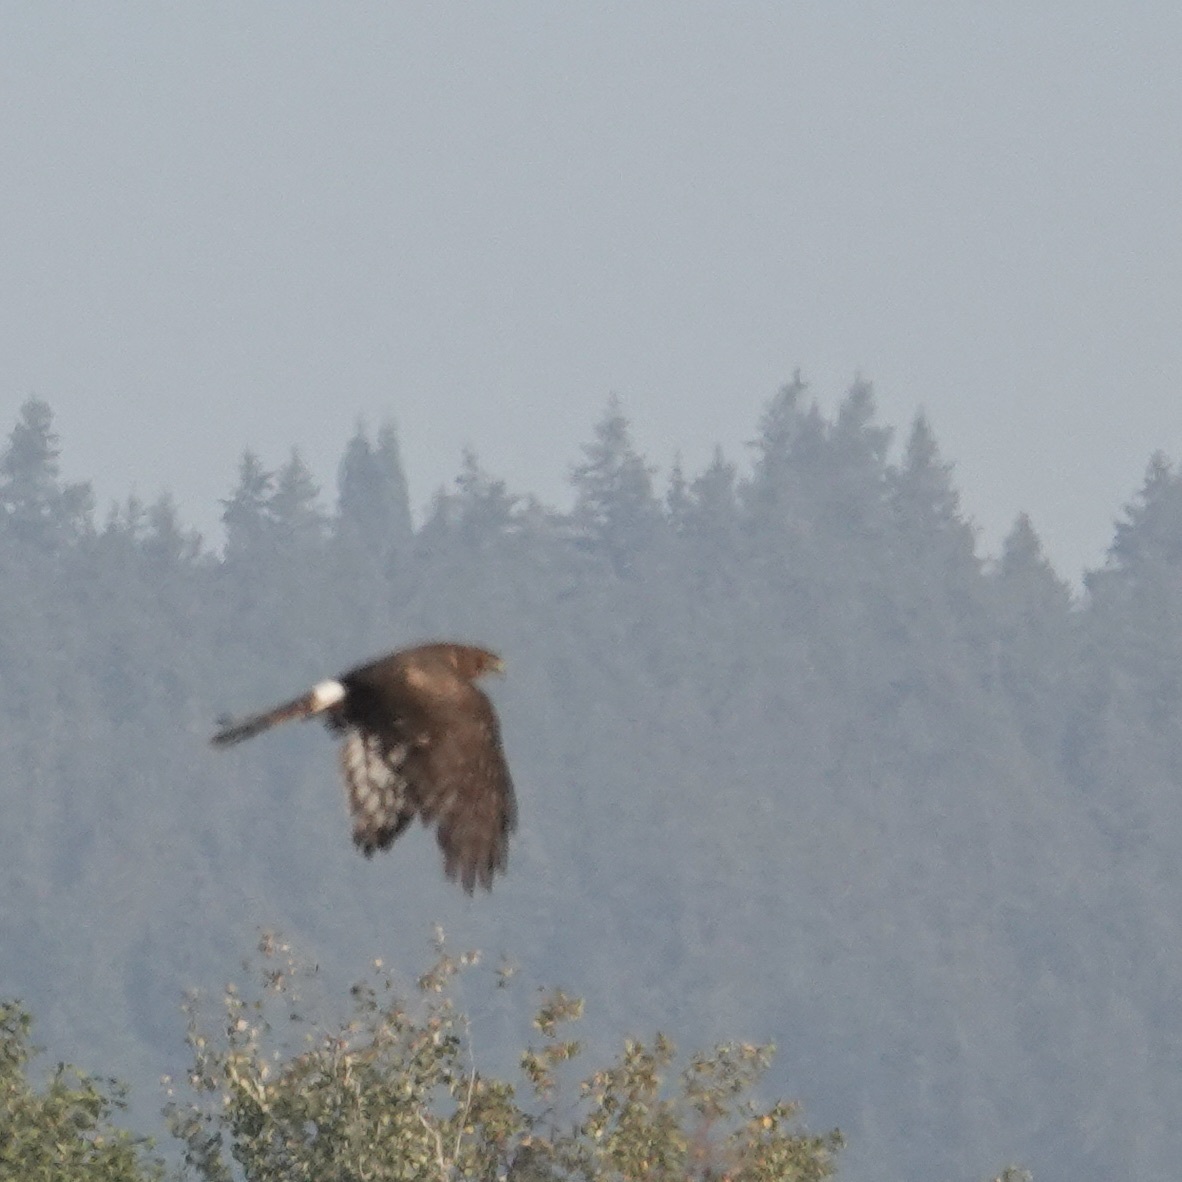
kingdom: Animalia
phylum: Chordata
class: Aves
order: Accipitriformes
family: Accipitridae
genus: Circus
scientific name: Circus cyaneus
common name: Hen harrier
